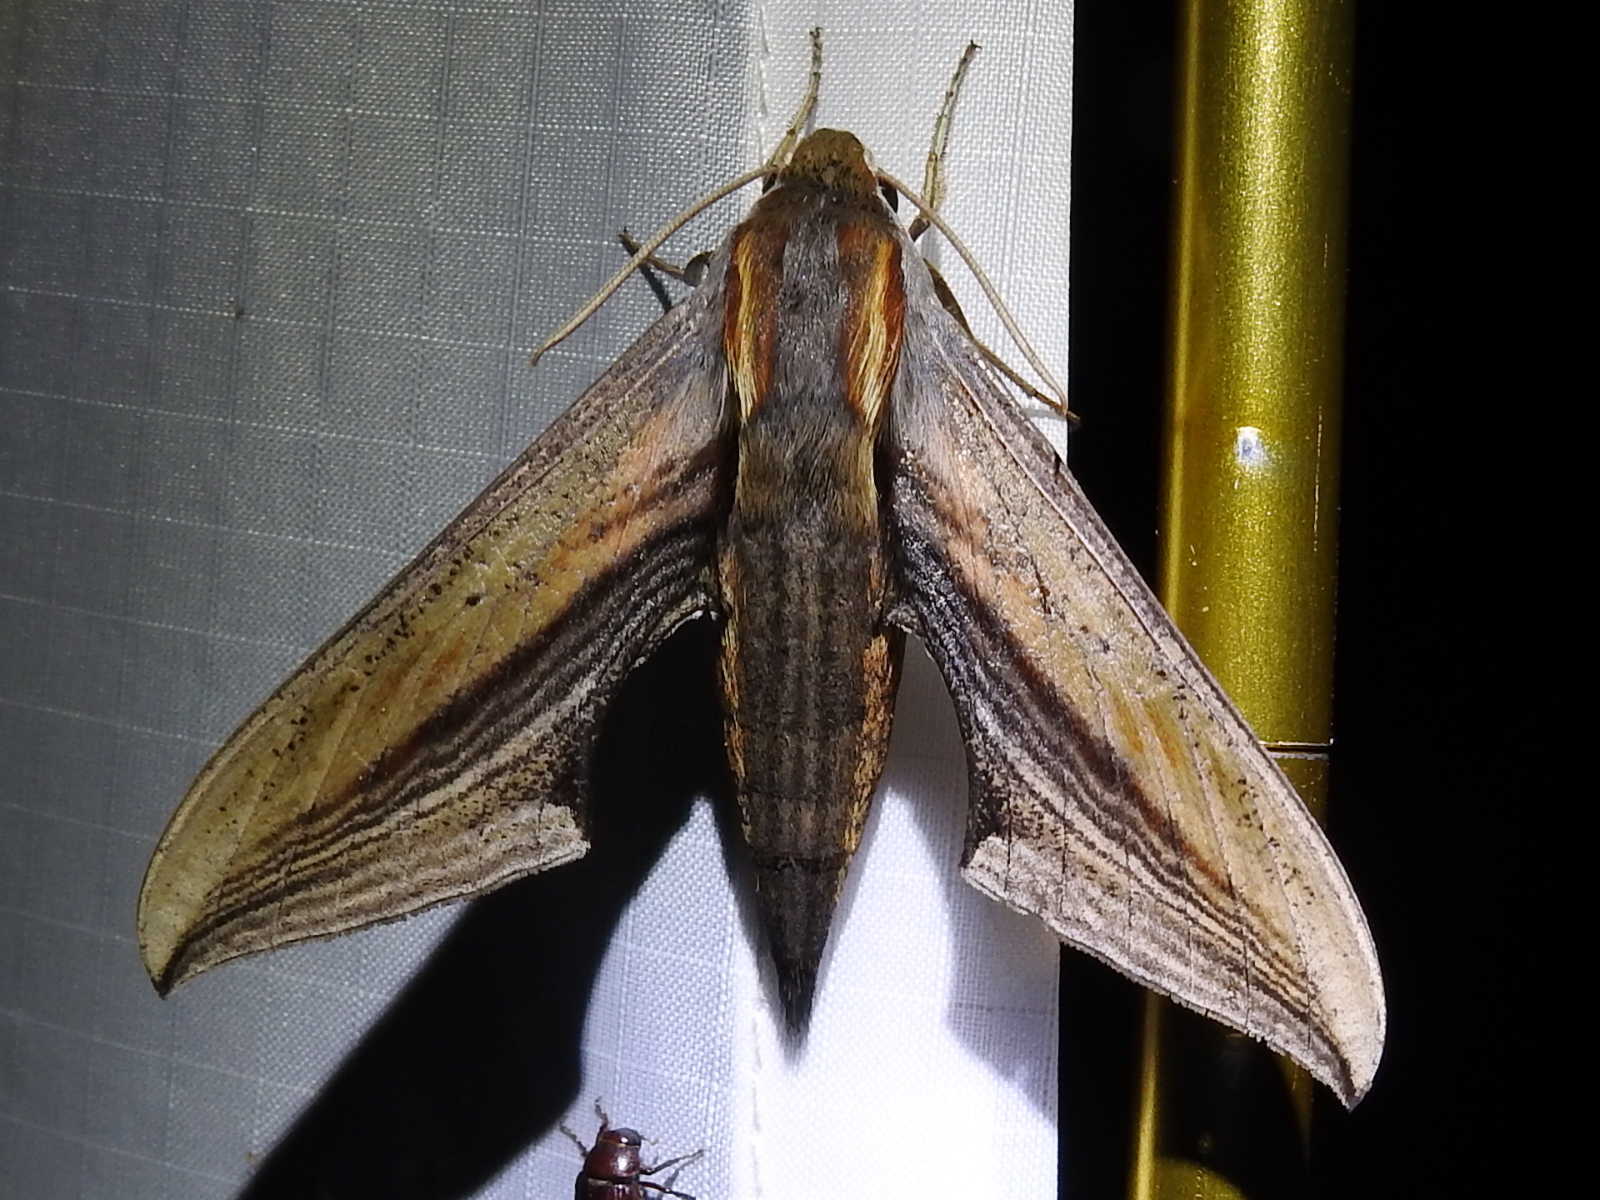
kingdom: Animalia
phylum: Arthropoda
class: Insecta
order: Lepidoptera
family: Sphingidae
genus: Xylophanes
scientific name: Xylophanes falco
